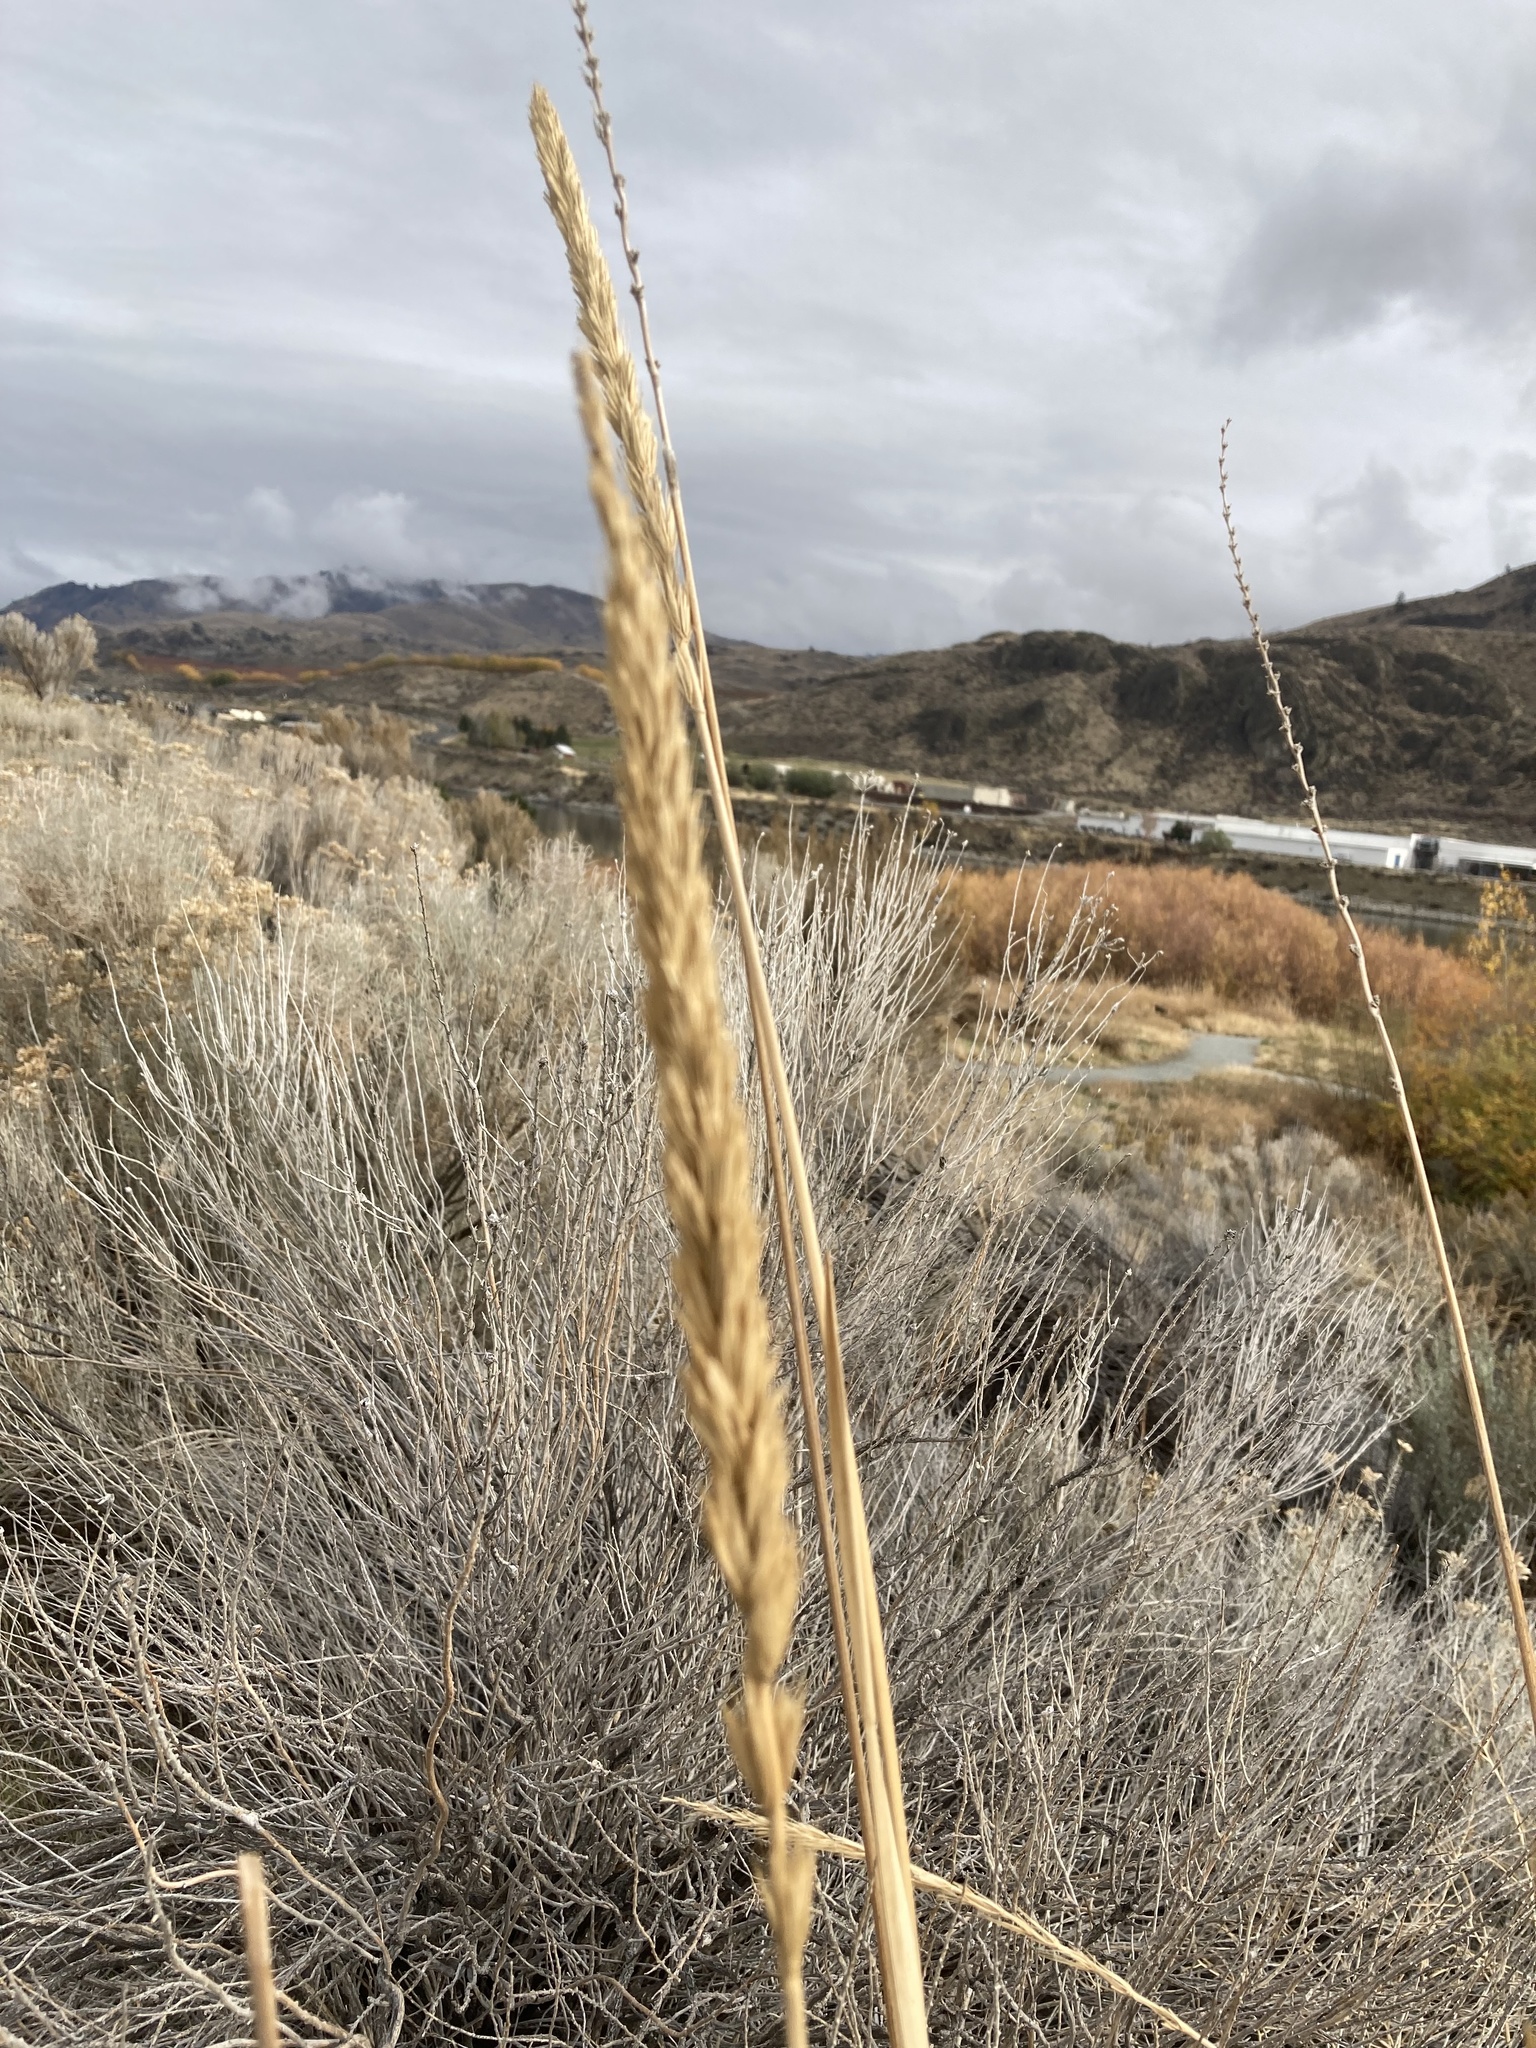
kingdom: Plantae
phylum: Tracheophyta
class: Liliopsida
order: Poales
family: Poaceae
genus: Leymus
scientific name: Leymus cinereus
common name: Basin wild rye
